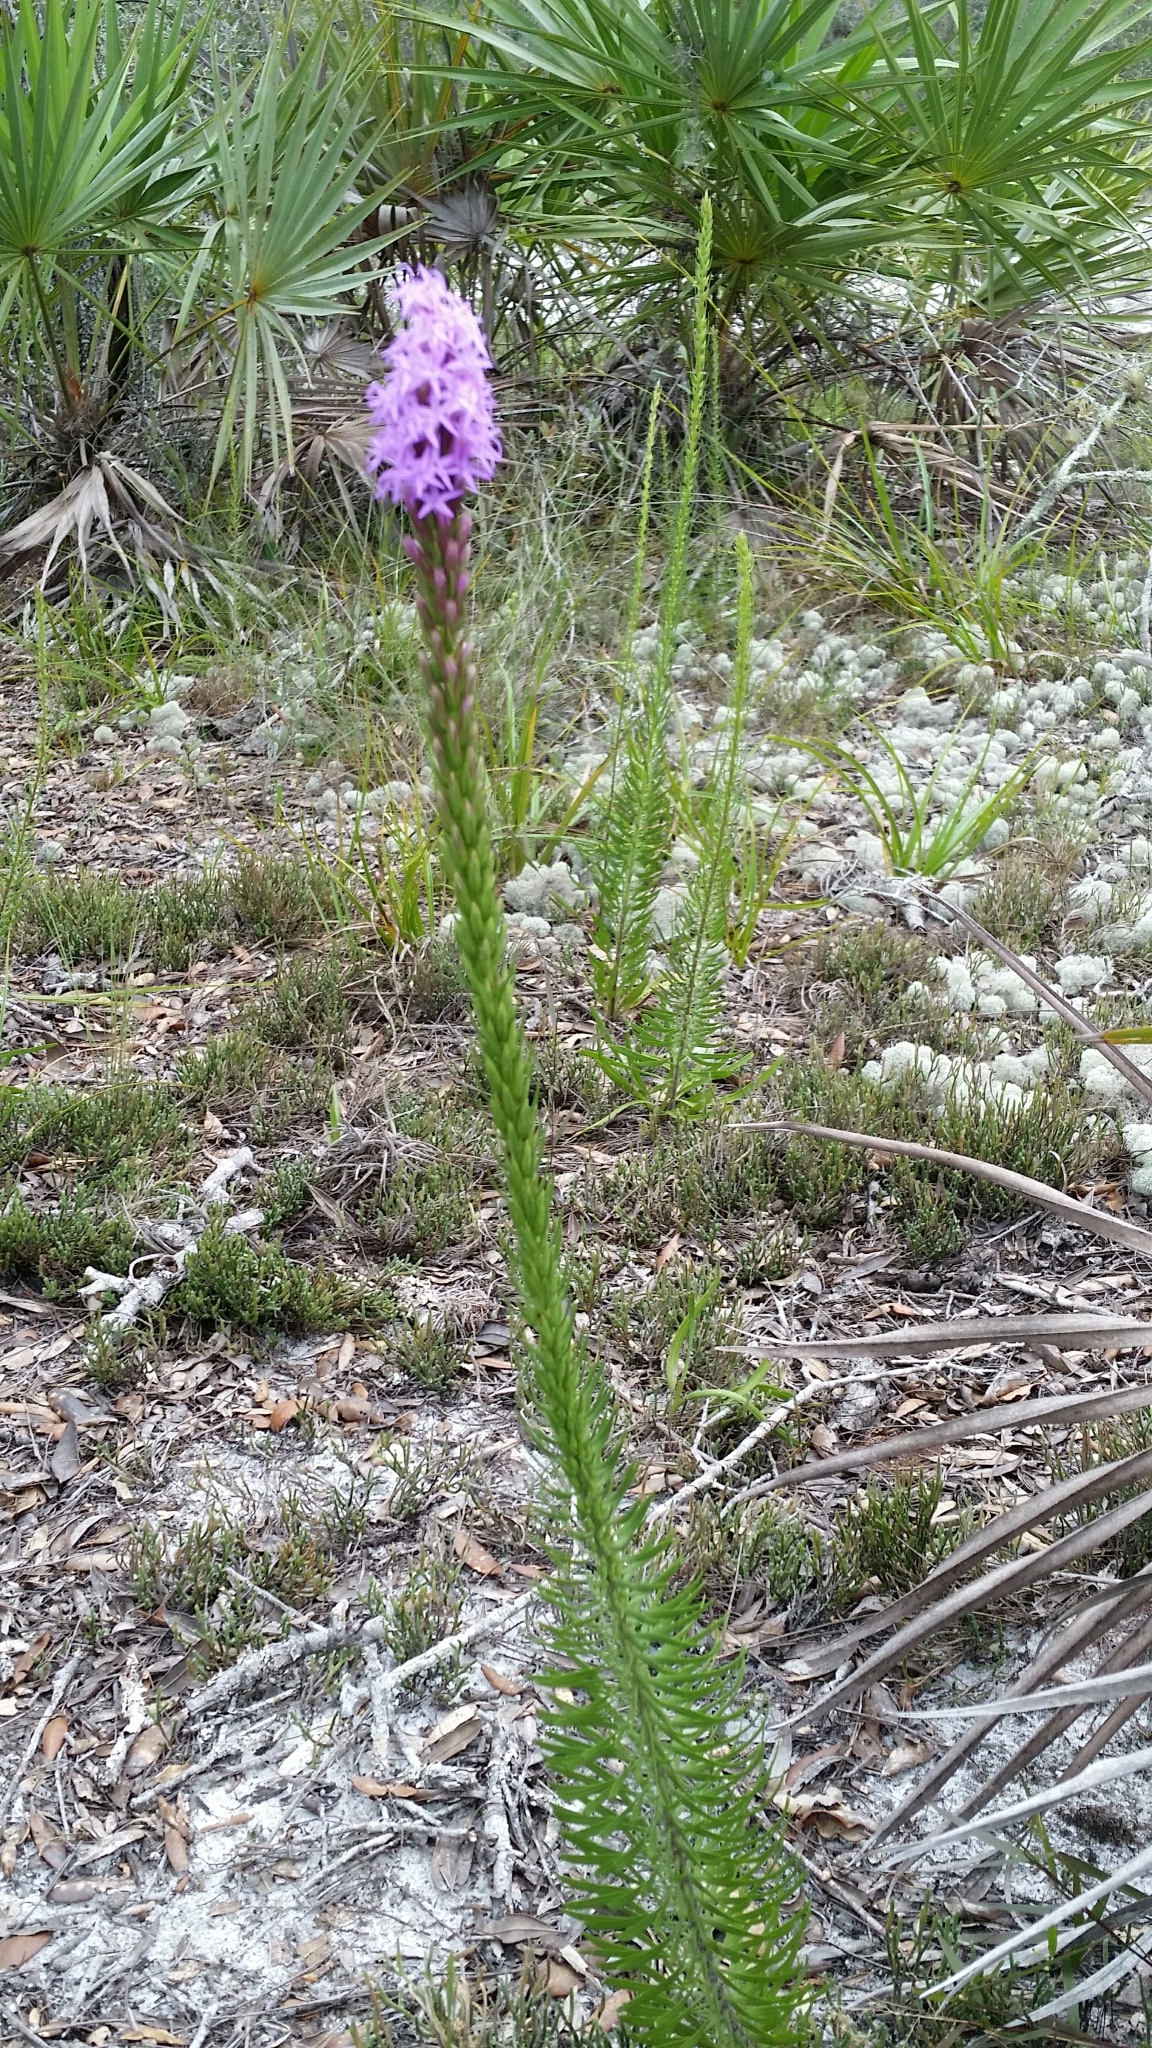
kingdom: Plantae
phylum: Tracheophyta
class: Magnoliopsida
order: Asterales
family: Asteraceae
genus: Liatris
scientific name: Liatris chapmanii
